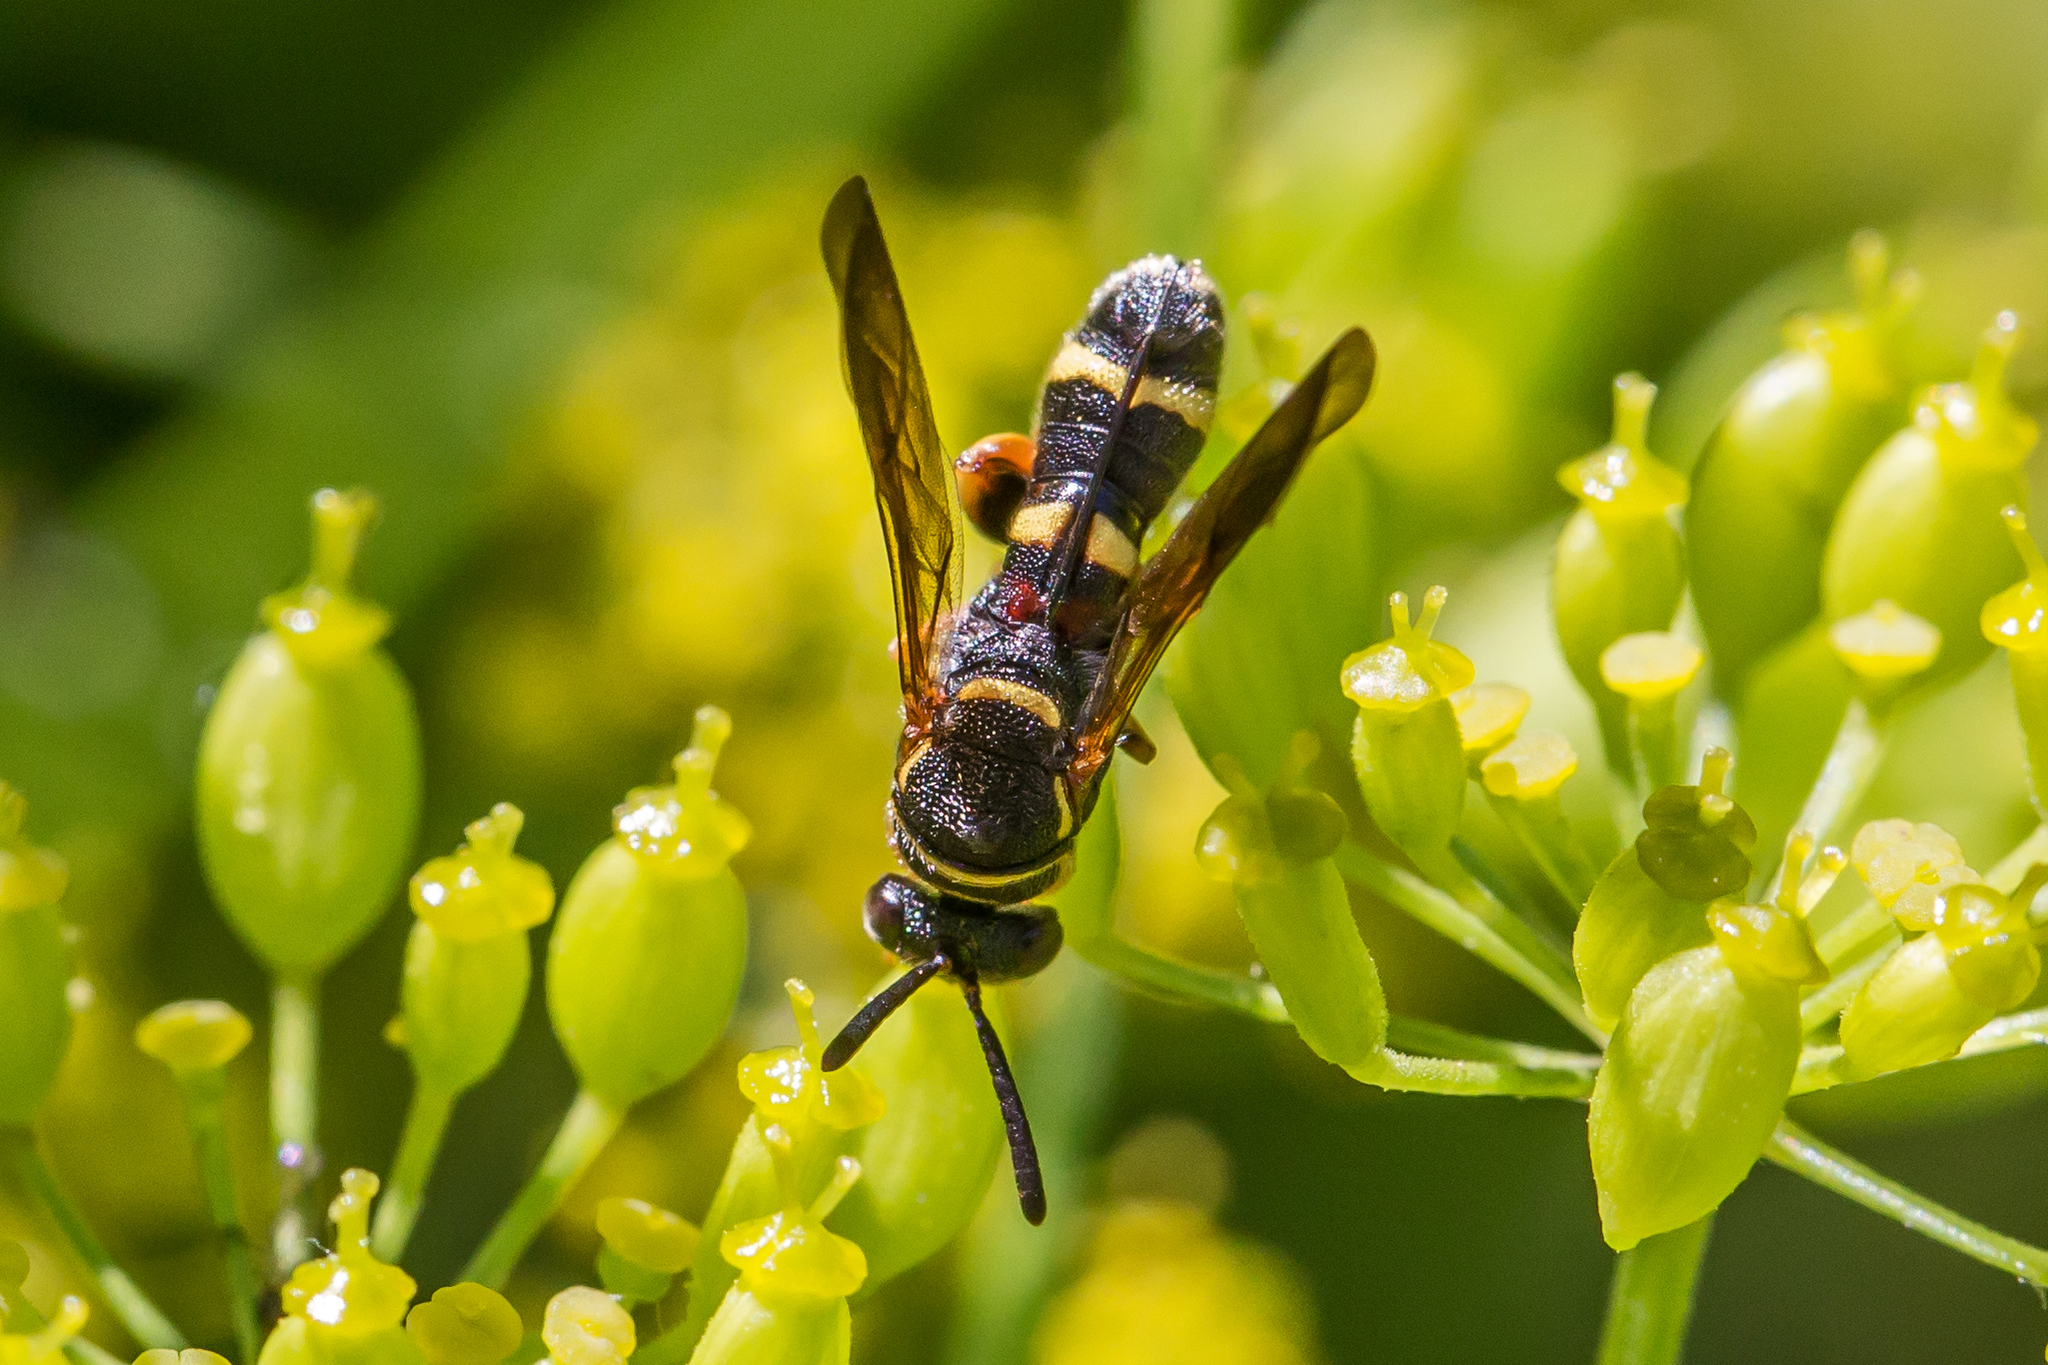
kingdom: Animalia
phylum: Arthropoda
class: Insecta
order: Hymenoptera
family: Leucospidae
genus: Leucospis
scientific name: Leucospis affinis
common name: Wasp
